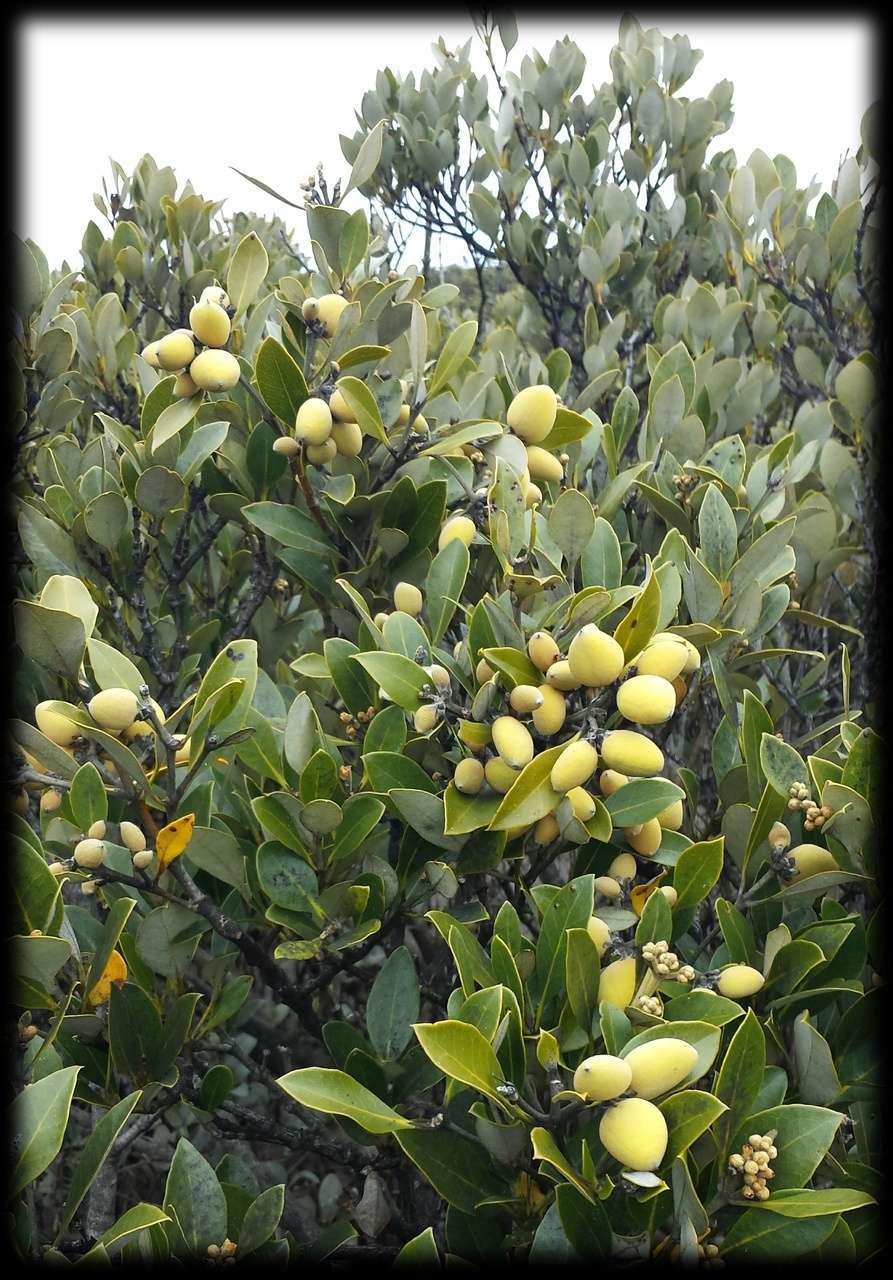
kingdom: Plantae
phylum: Tracheophyta
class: Magnoliopsida
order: Lamiales
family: Acanthaceae
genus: Avicennia
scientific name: Avicennia marina
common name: Gray mangrove
